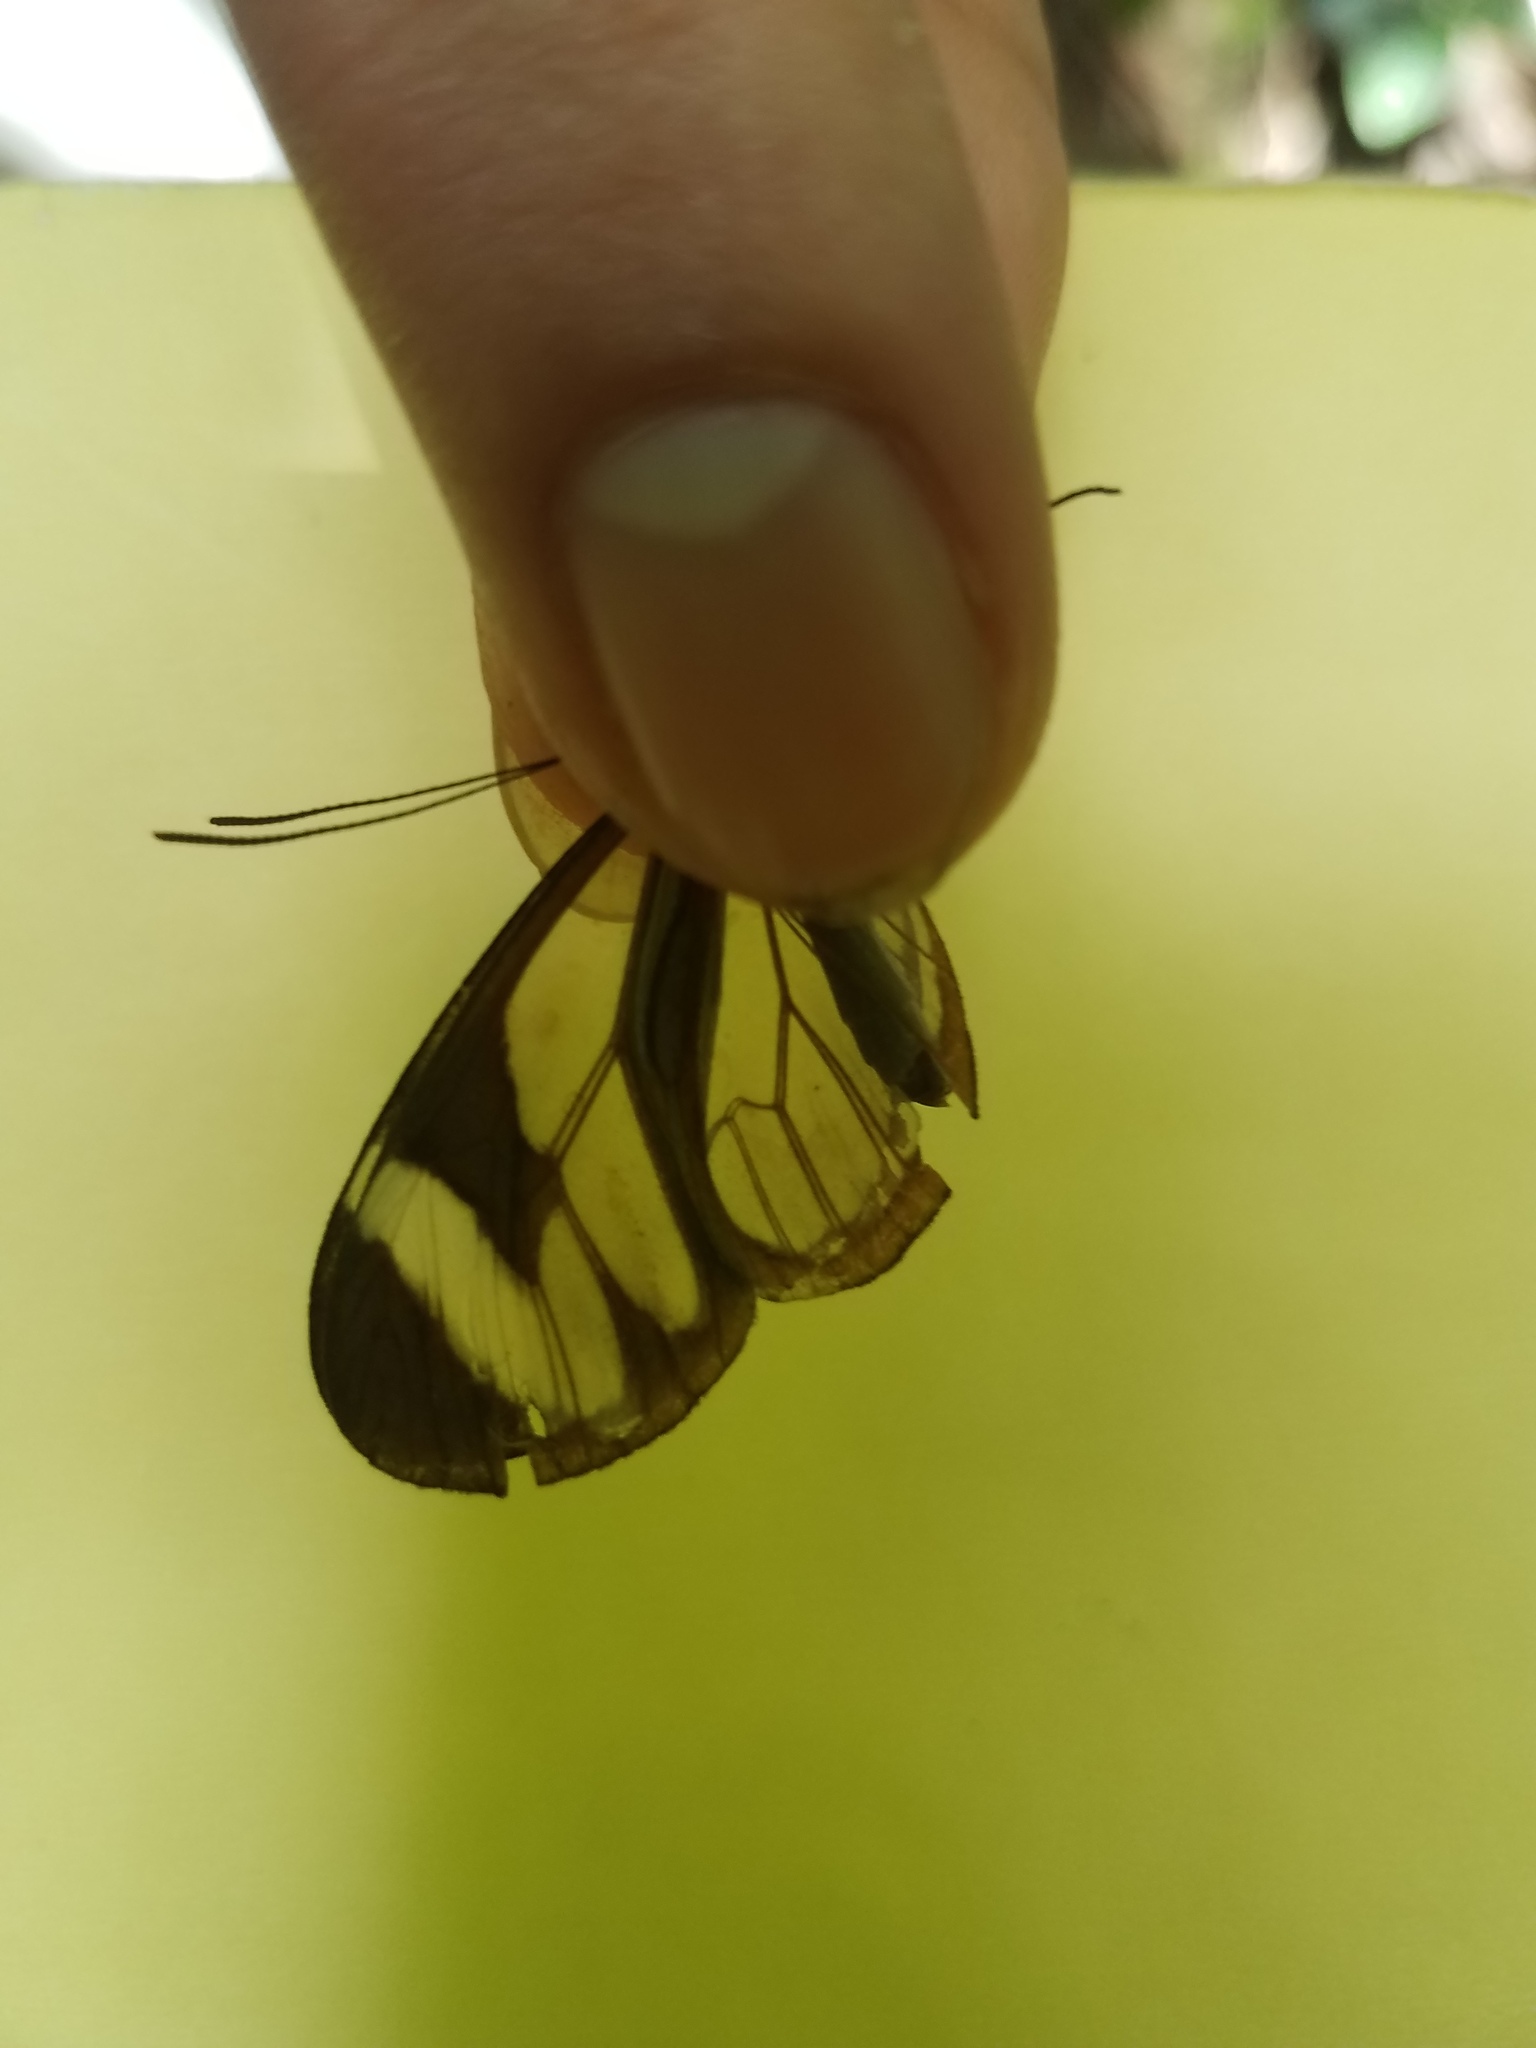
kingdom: Animalia
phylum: Arthropoda
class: Insecta
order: Lepidoptera
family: Nymphalidae
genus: Ithomia
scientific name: Ithomia patilla
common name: Patilla clearwing
